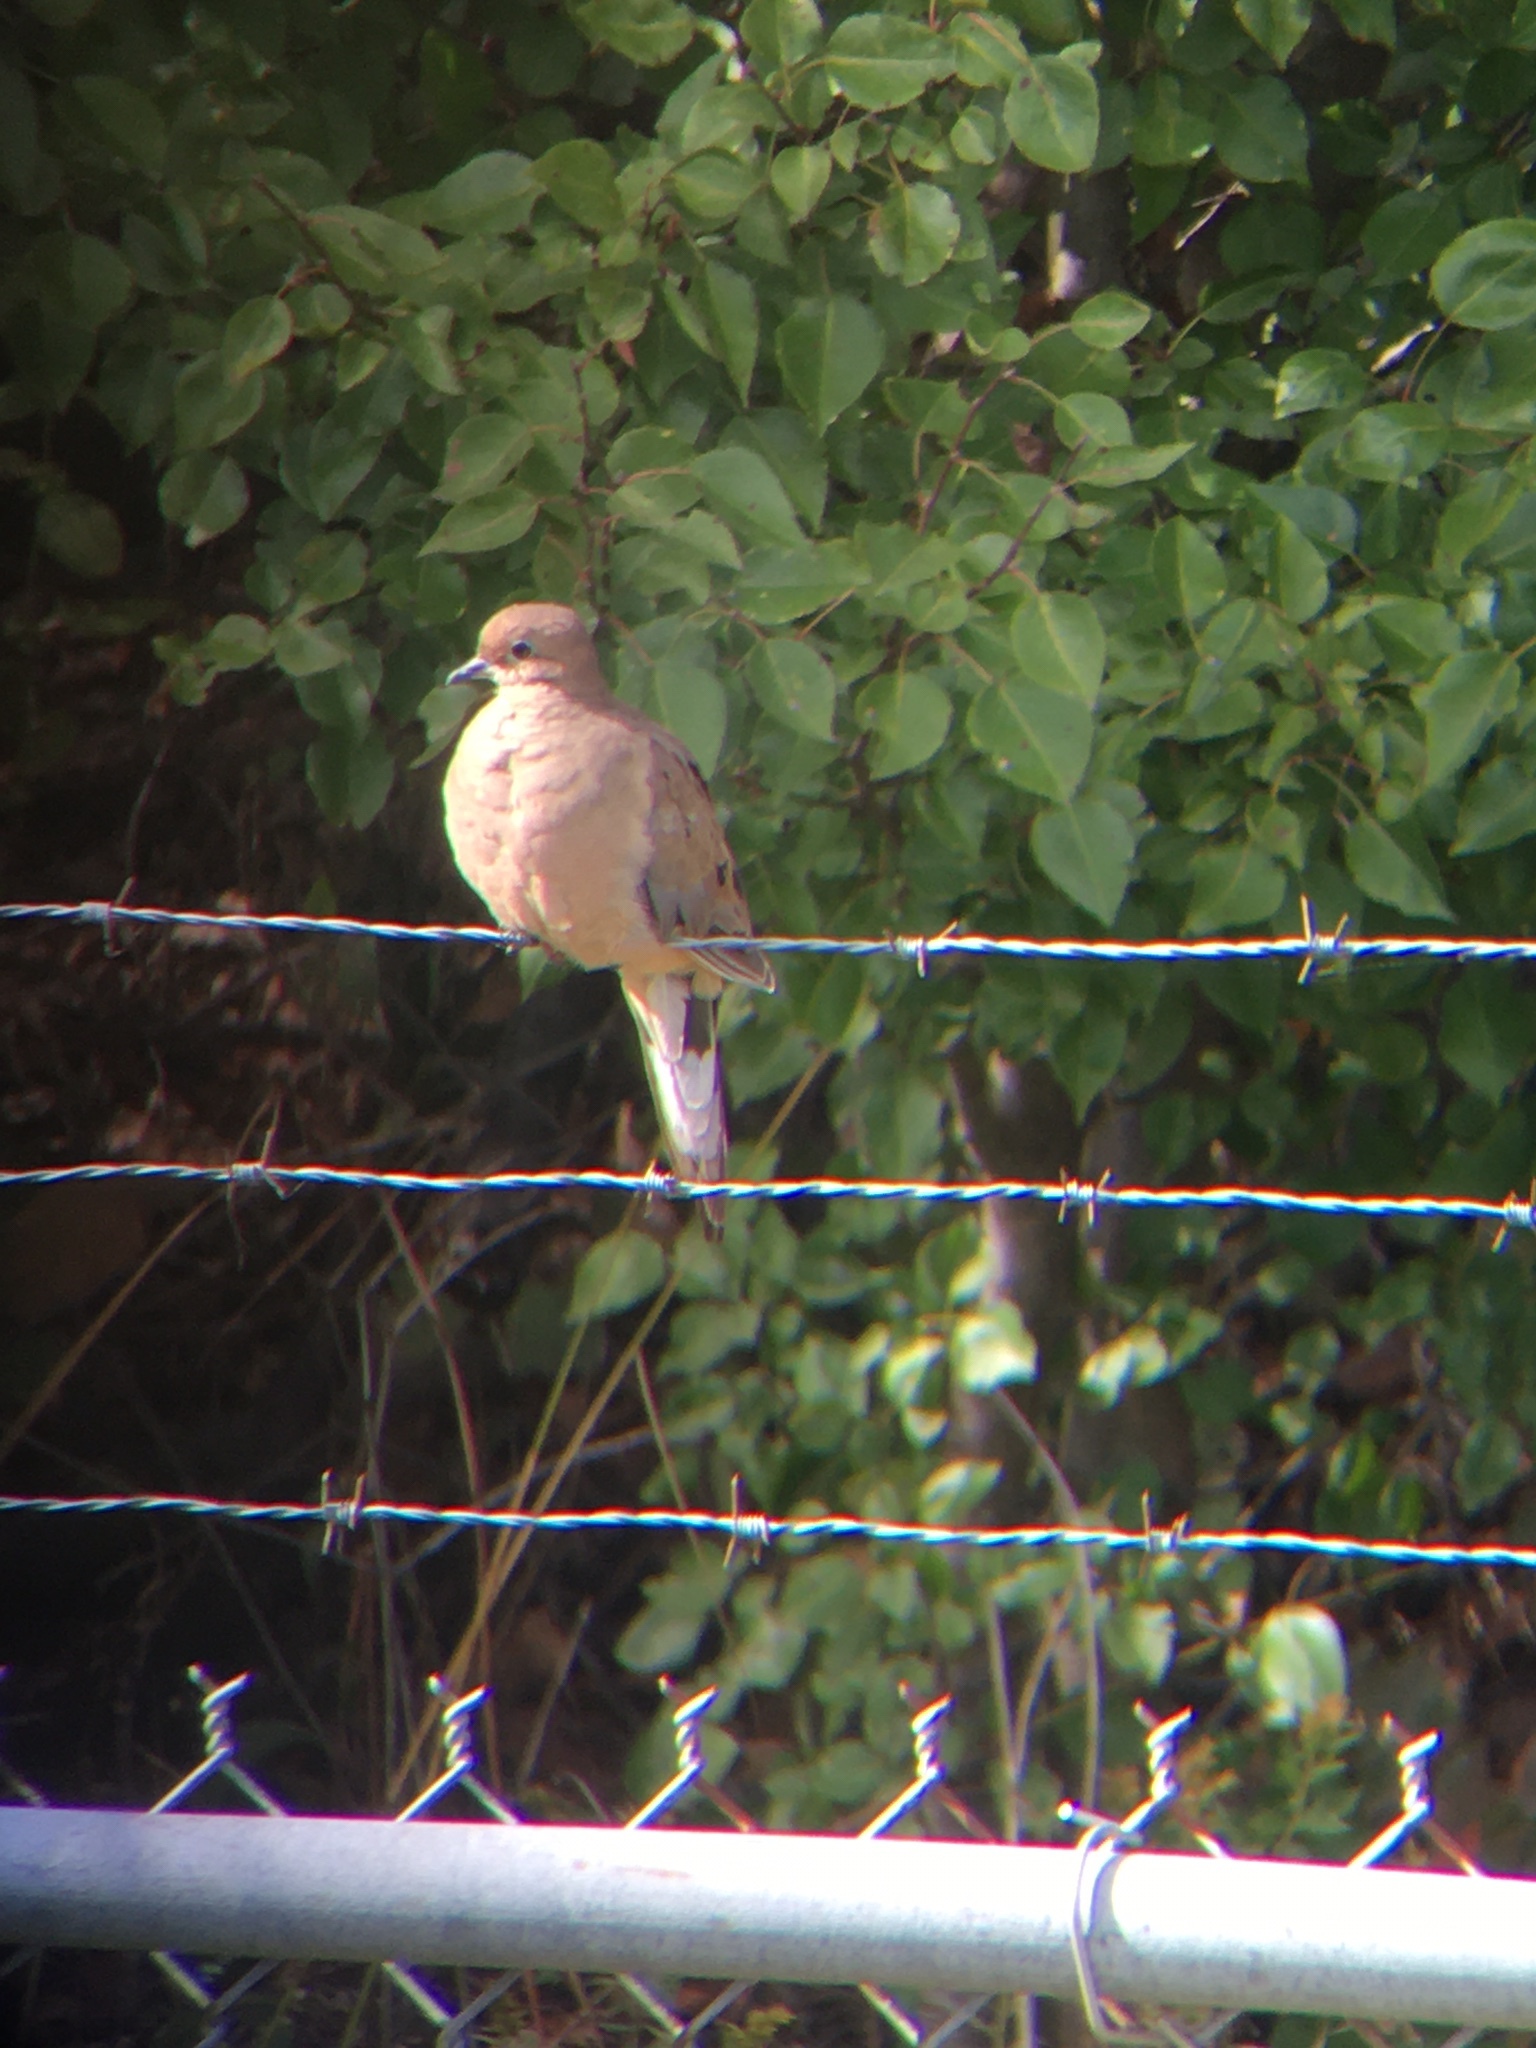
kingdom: Animalia
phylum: Chordata
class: Aves
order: Columbiformes
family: Columbidae
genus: Zenaida
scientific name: Zenaida macroura
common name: Mourning dove
